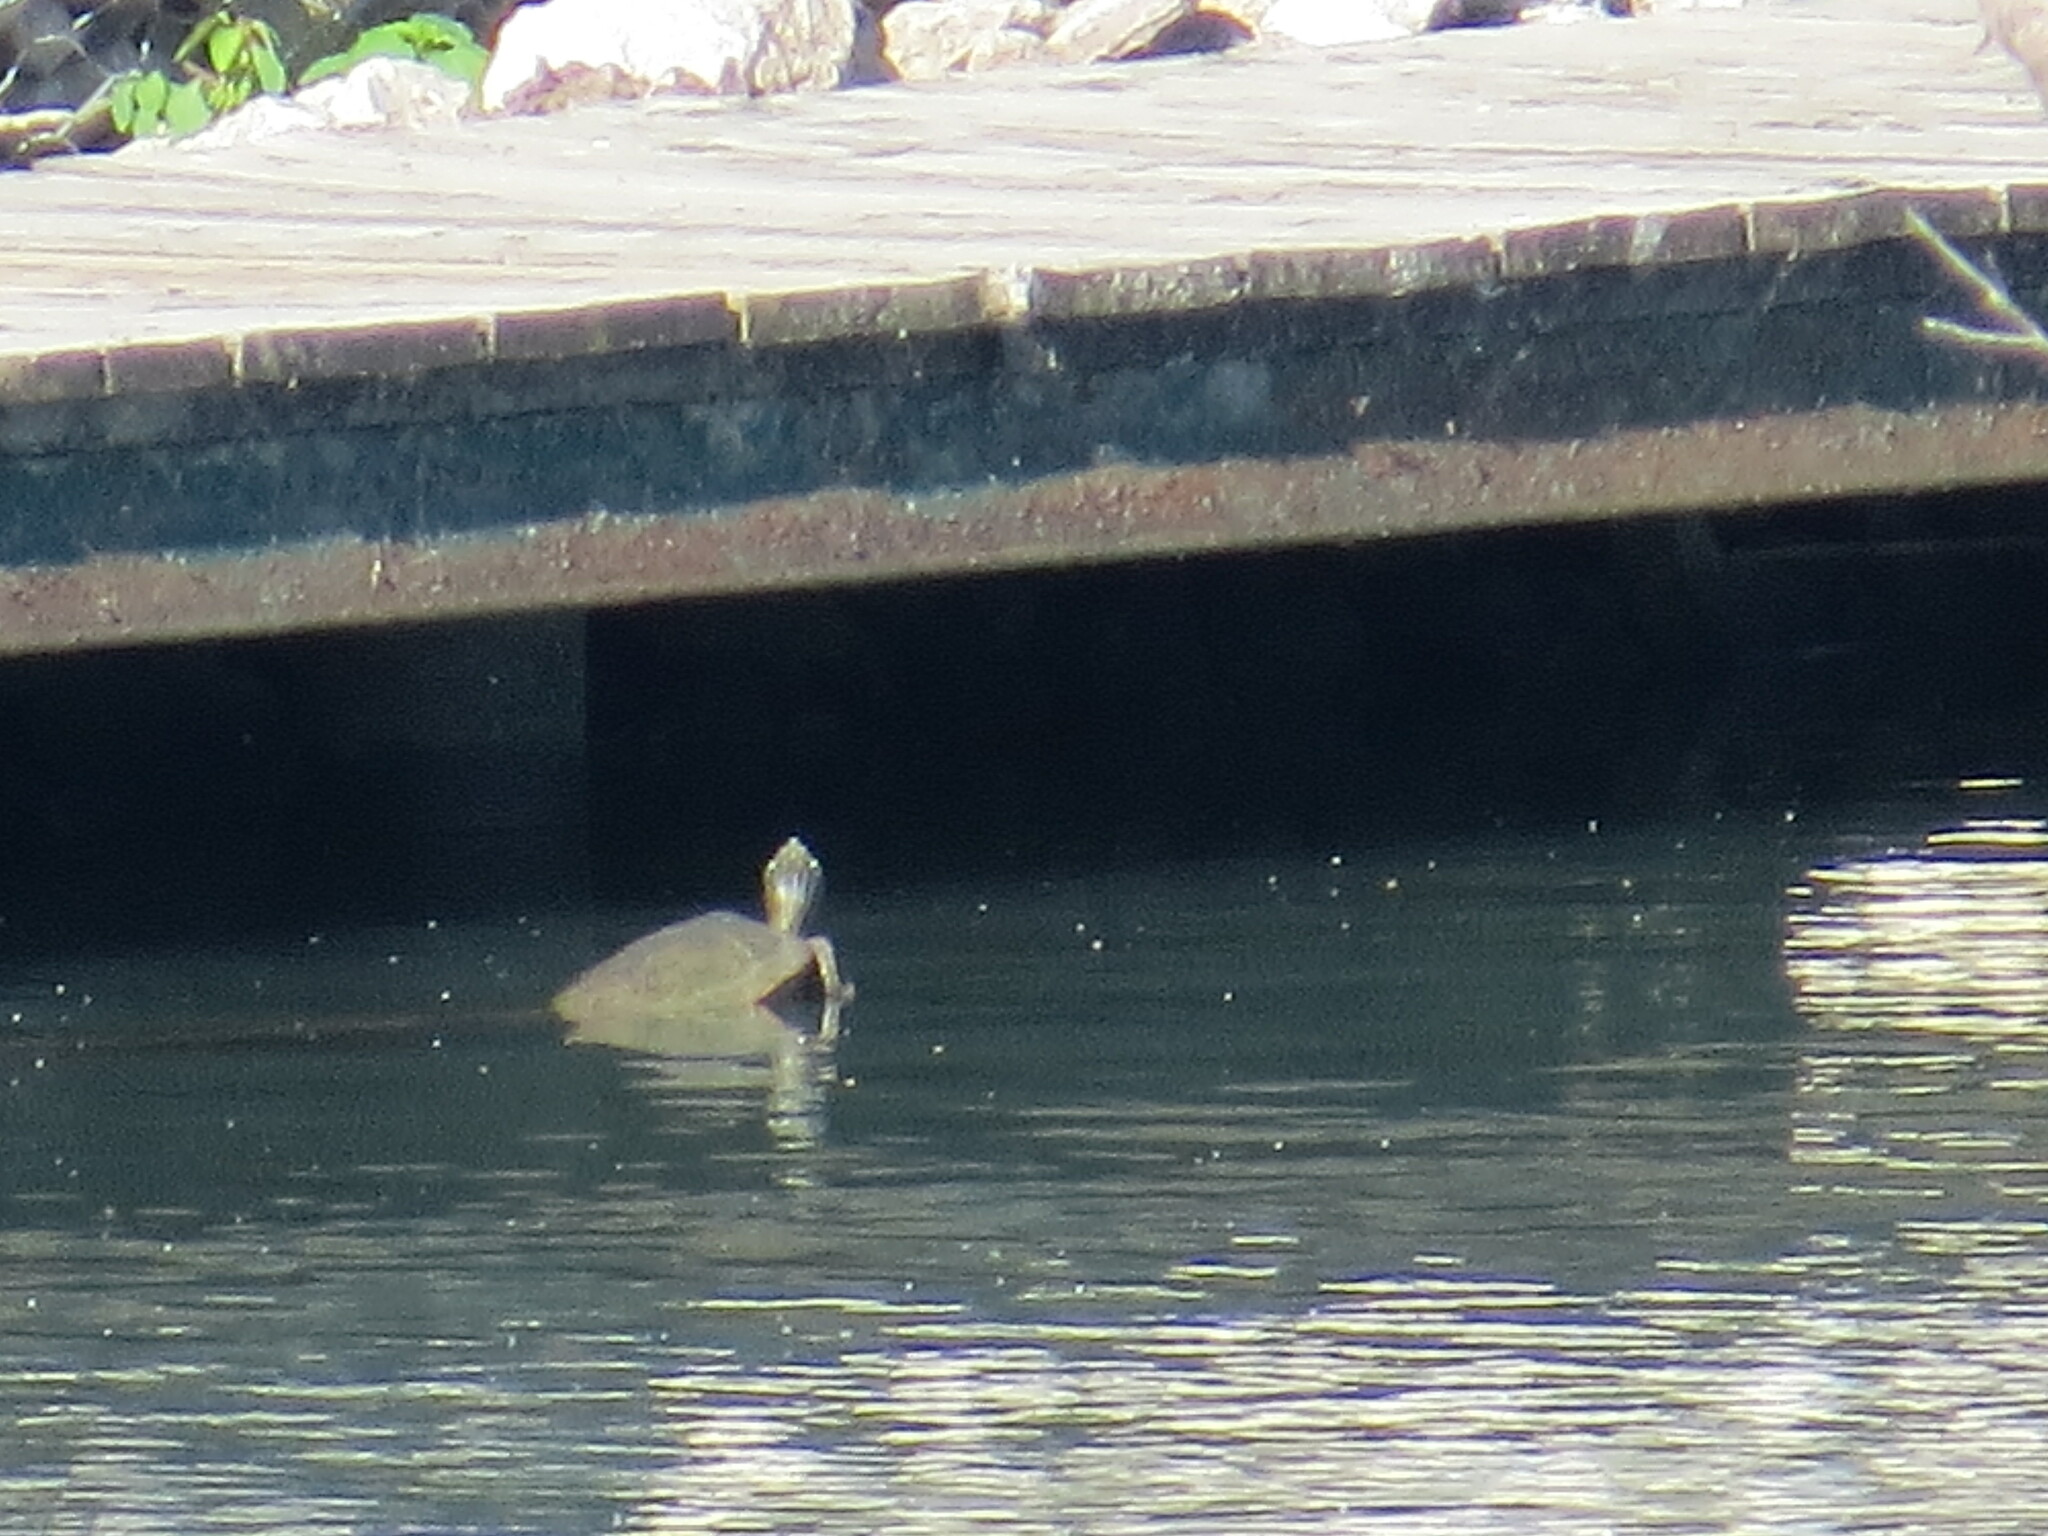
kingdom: Animalia
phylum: Chordata
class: Testudines
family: Emydidae
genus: Graptemys
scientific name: Graptemys geographica
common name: Common map turtle
